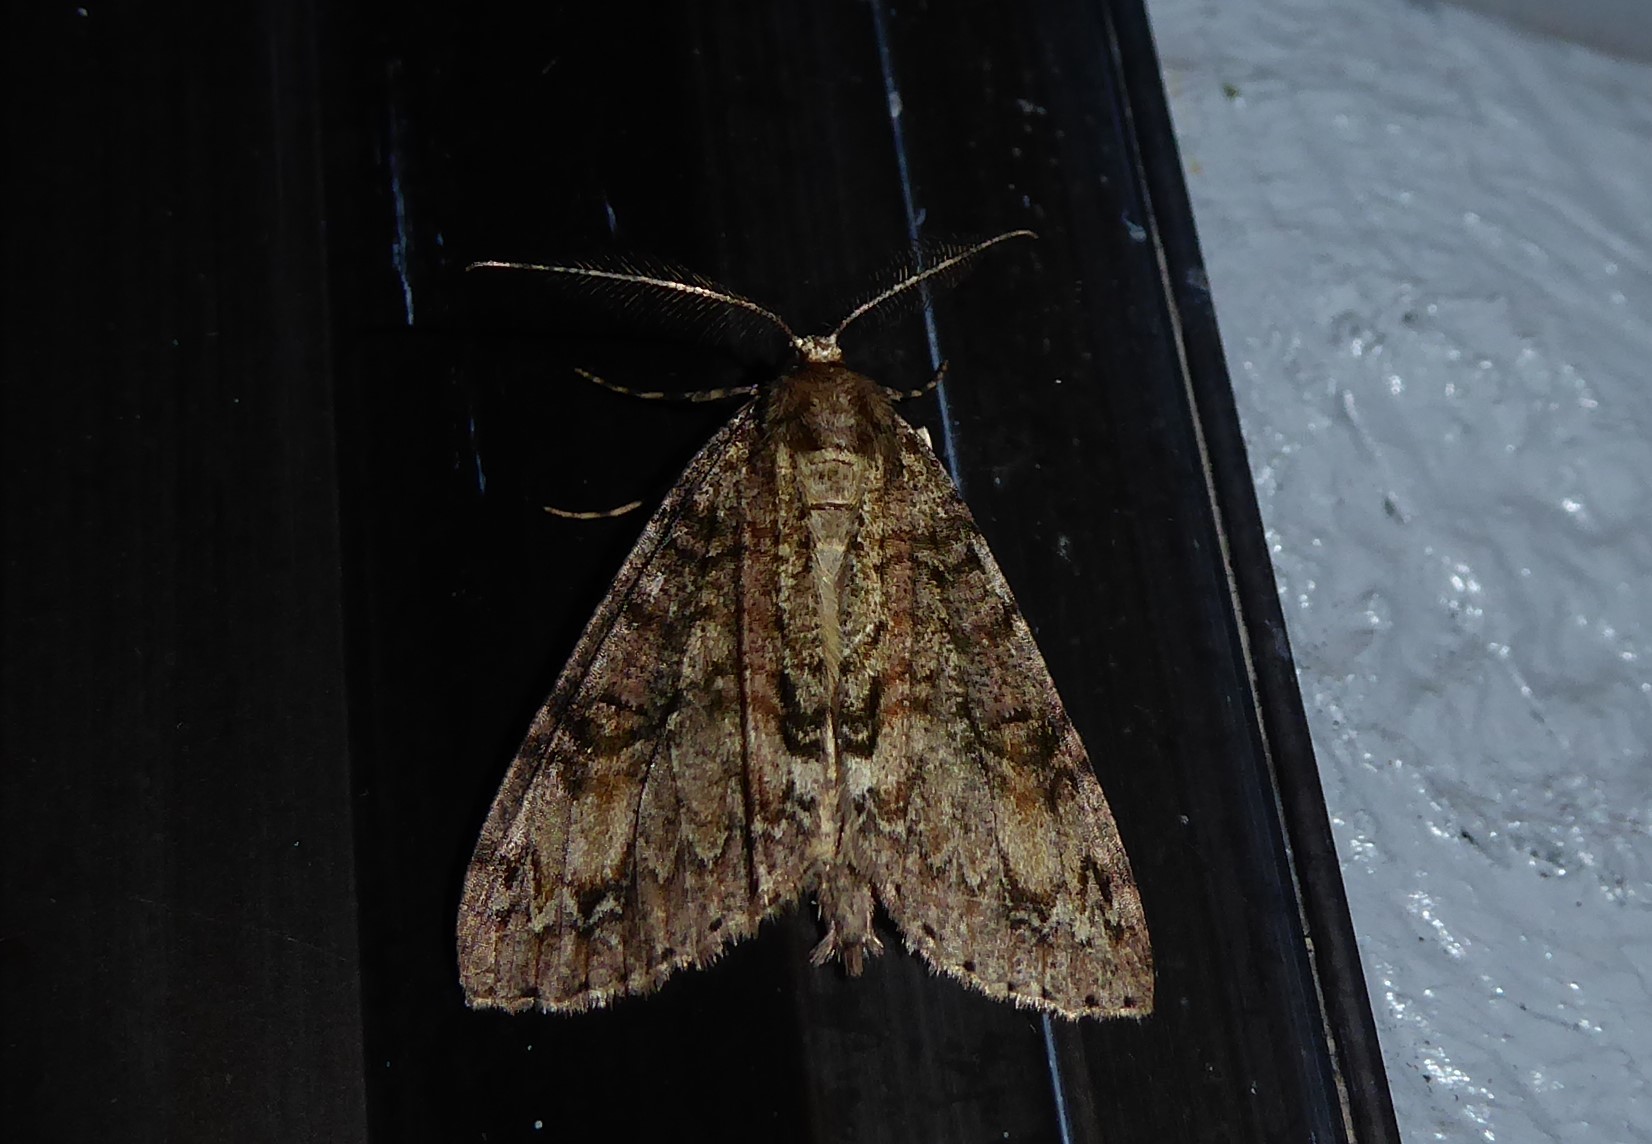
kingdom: Animalia
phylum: Arthropoda
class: Insecta
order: Lepidoptera
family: Geometridae
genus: Pseudocoremia
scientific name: Pseudocoremia suavis
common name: Common forest looper
